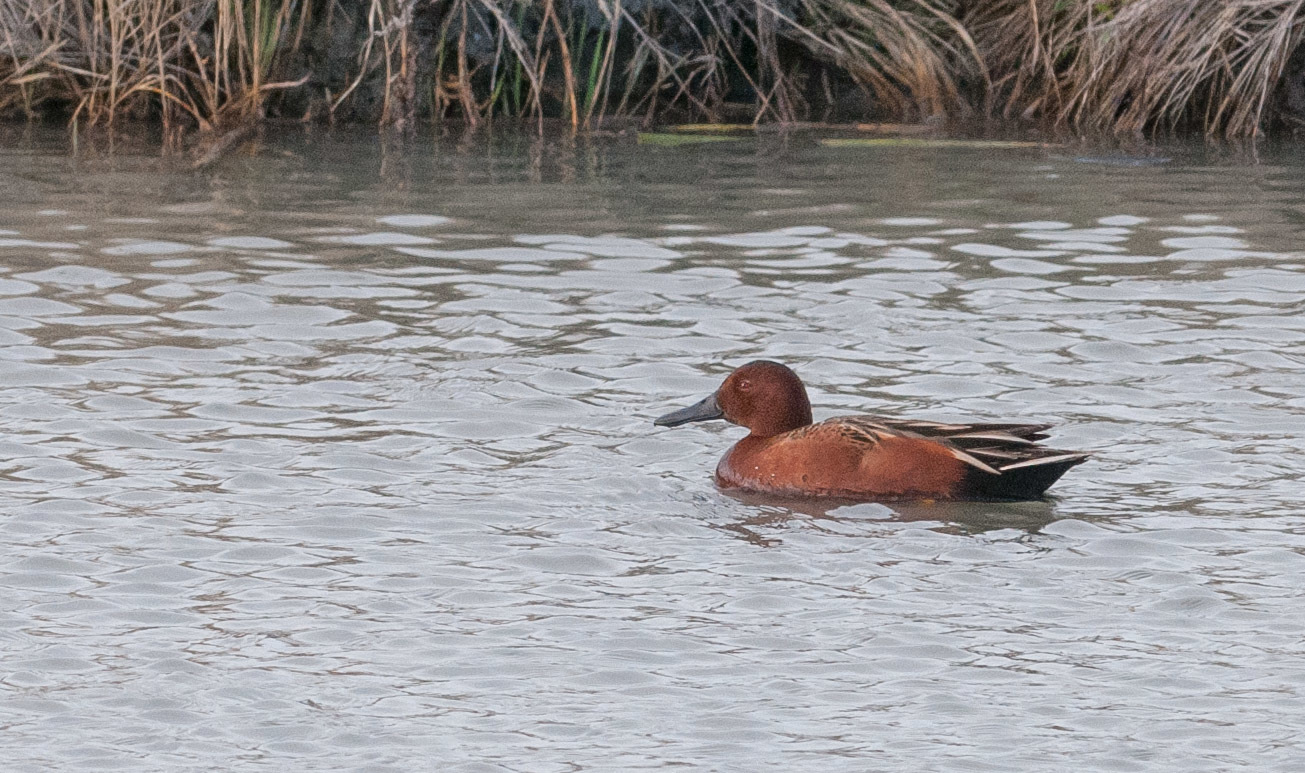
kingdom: Animalia
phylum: Chordata
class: Aves
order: Anseriformes
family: Anatidae
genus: Spatula
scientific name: Spatula cyanoptera
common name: Cinnamon teal
